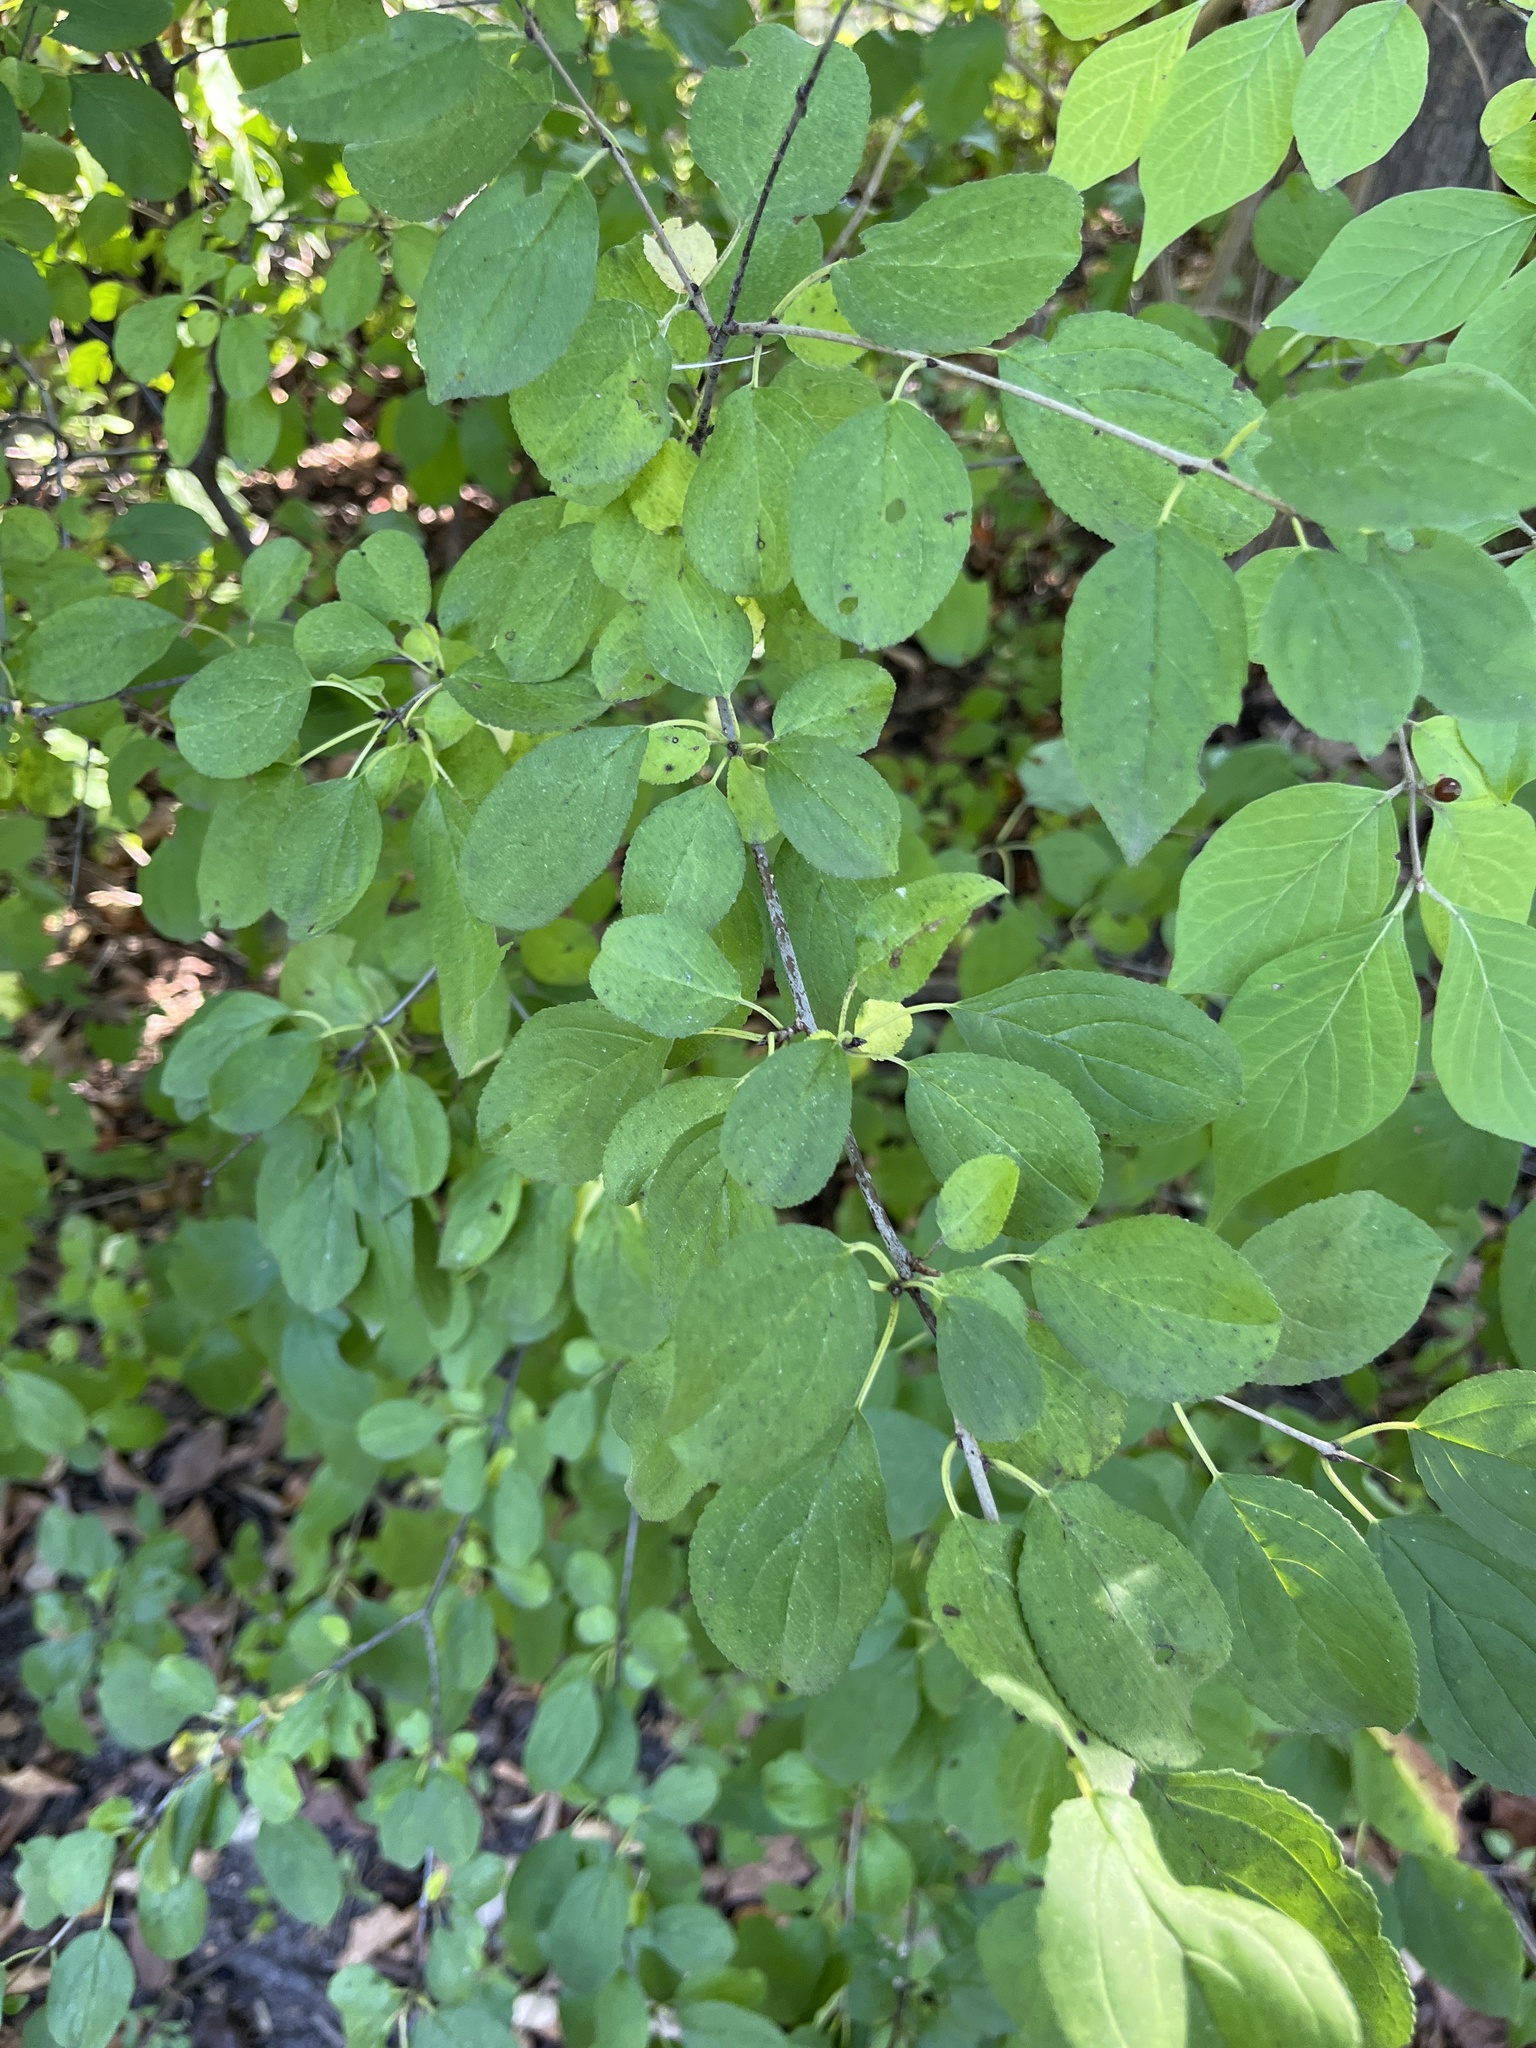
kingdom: Plantae
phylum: Tracheophyta
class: Magnoliopsida
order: Rosales
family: Rhamnaceae
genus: Rhamnus
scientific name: Rhamnus cathartica
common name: Common buckthorn
